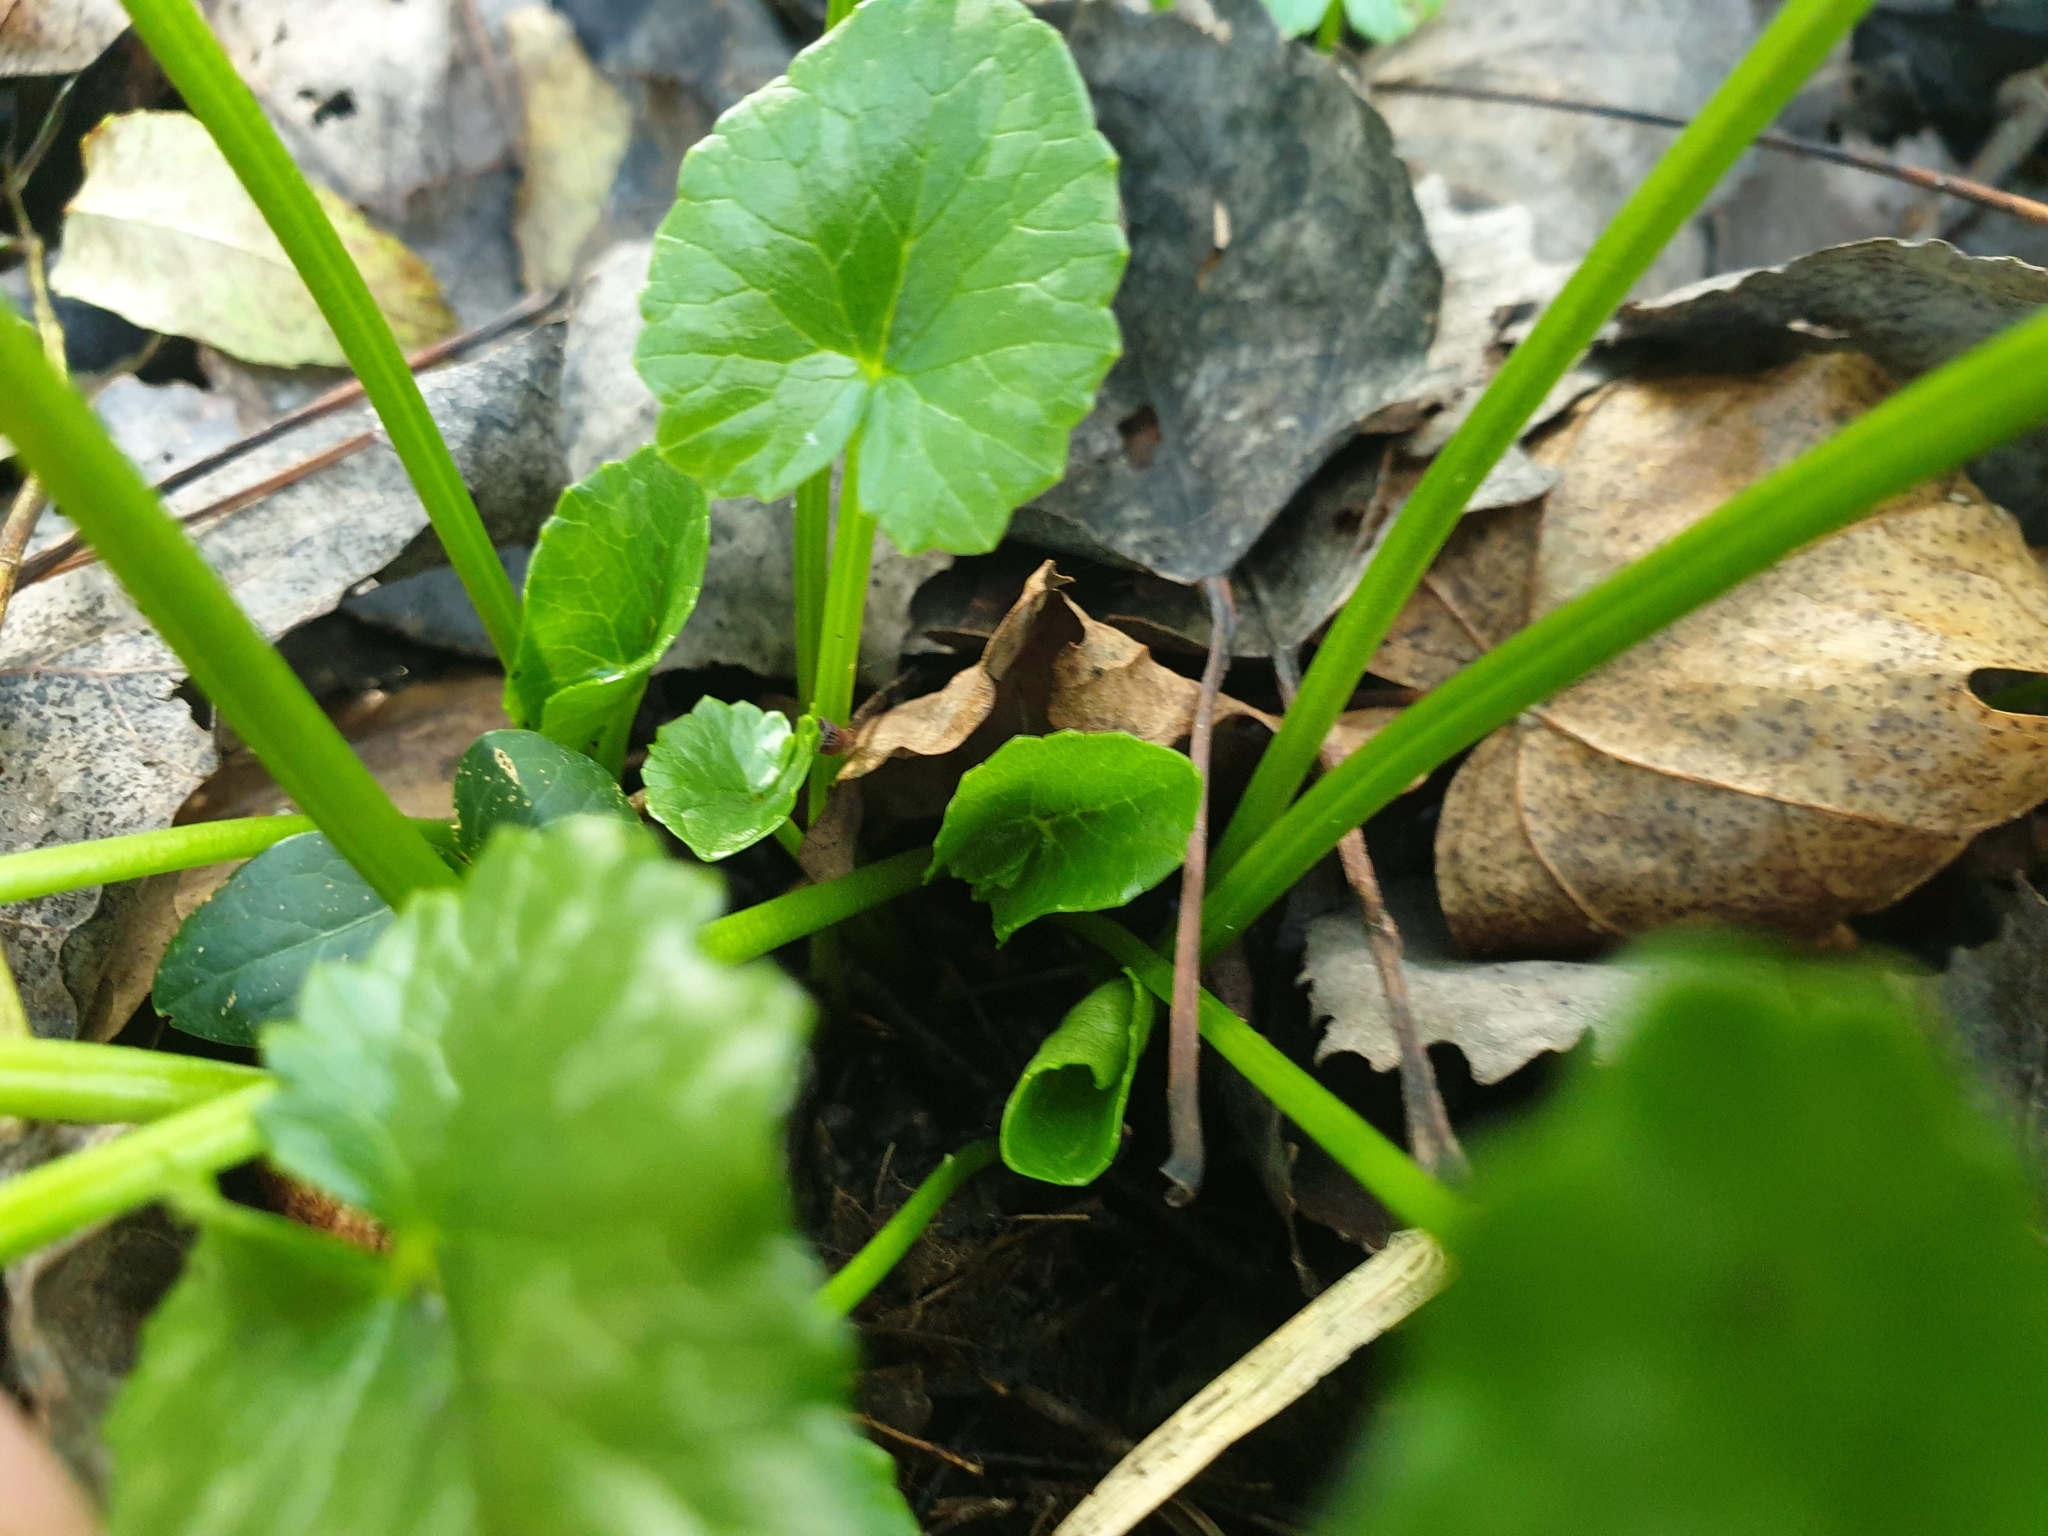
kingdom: Plantae
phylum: Tracheophyta
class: Magnoliopsida
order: Ranunculales
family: Ranunculaceae
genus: Ficaria
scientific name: Ficaria verna
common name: Lesser celandine
